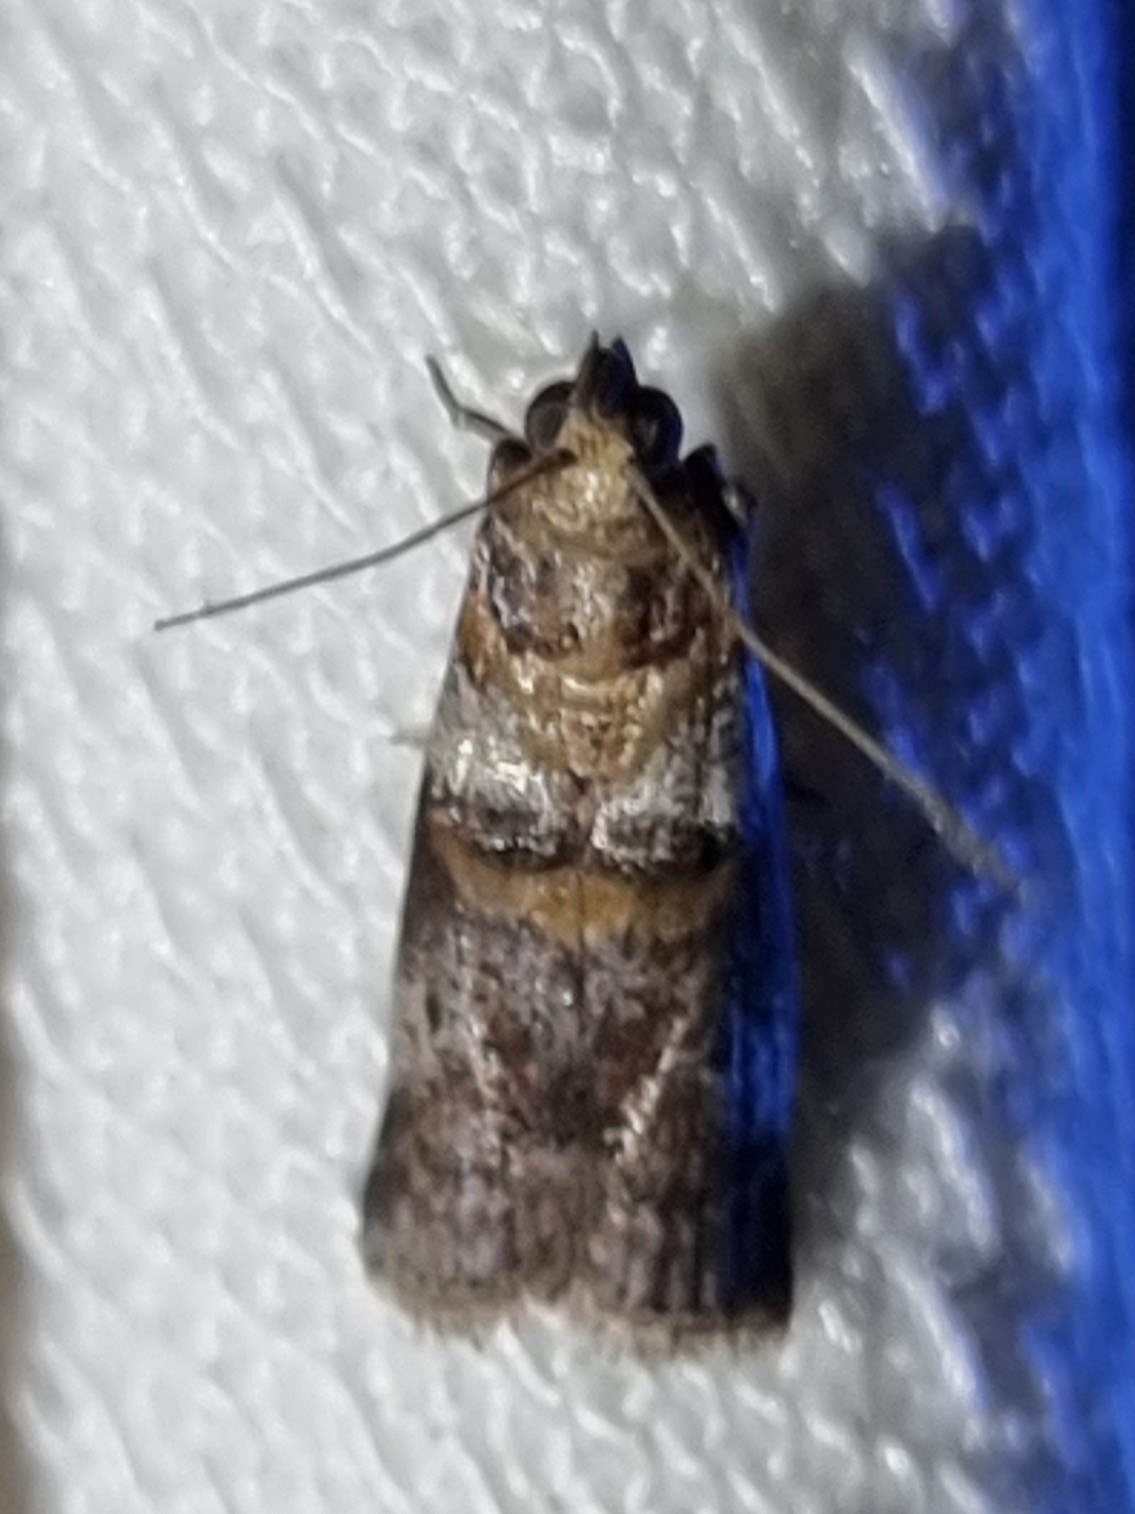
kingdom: Animalia
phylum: Arthropoda
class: Insecta
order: Lepidoptera
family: Pyralidae
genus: Conobathra
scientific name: Conobathra hemichlaena
